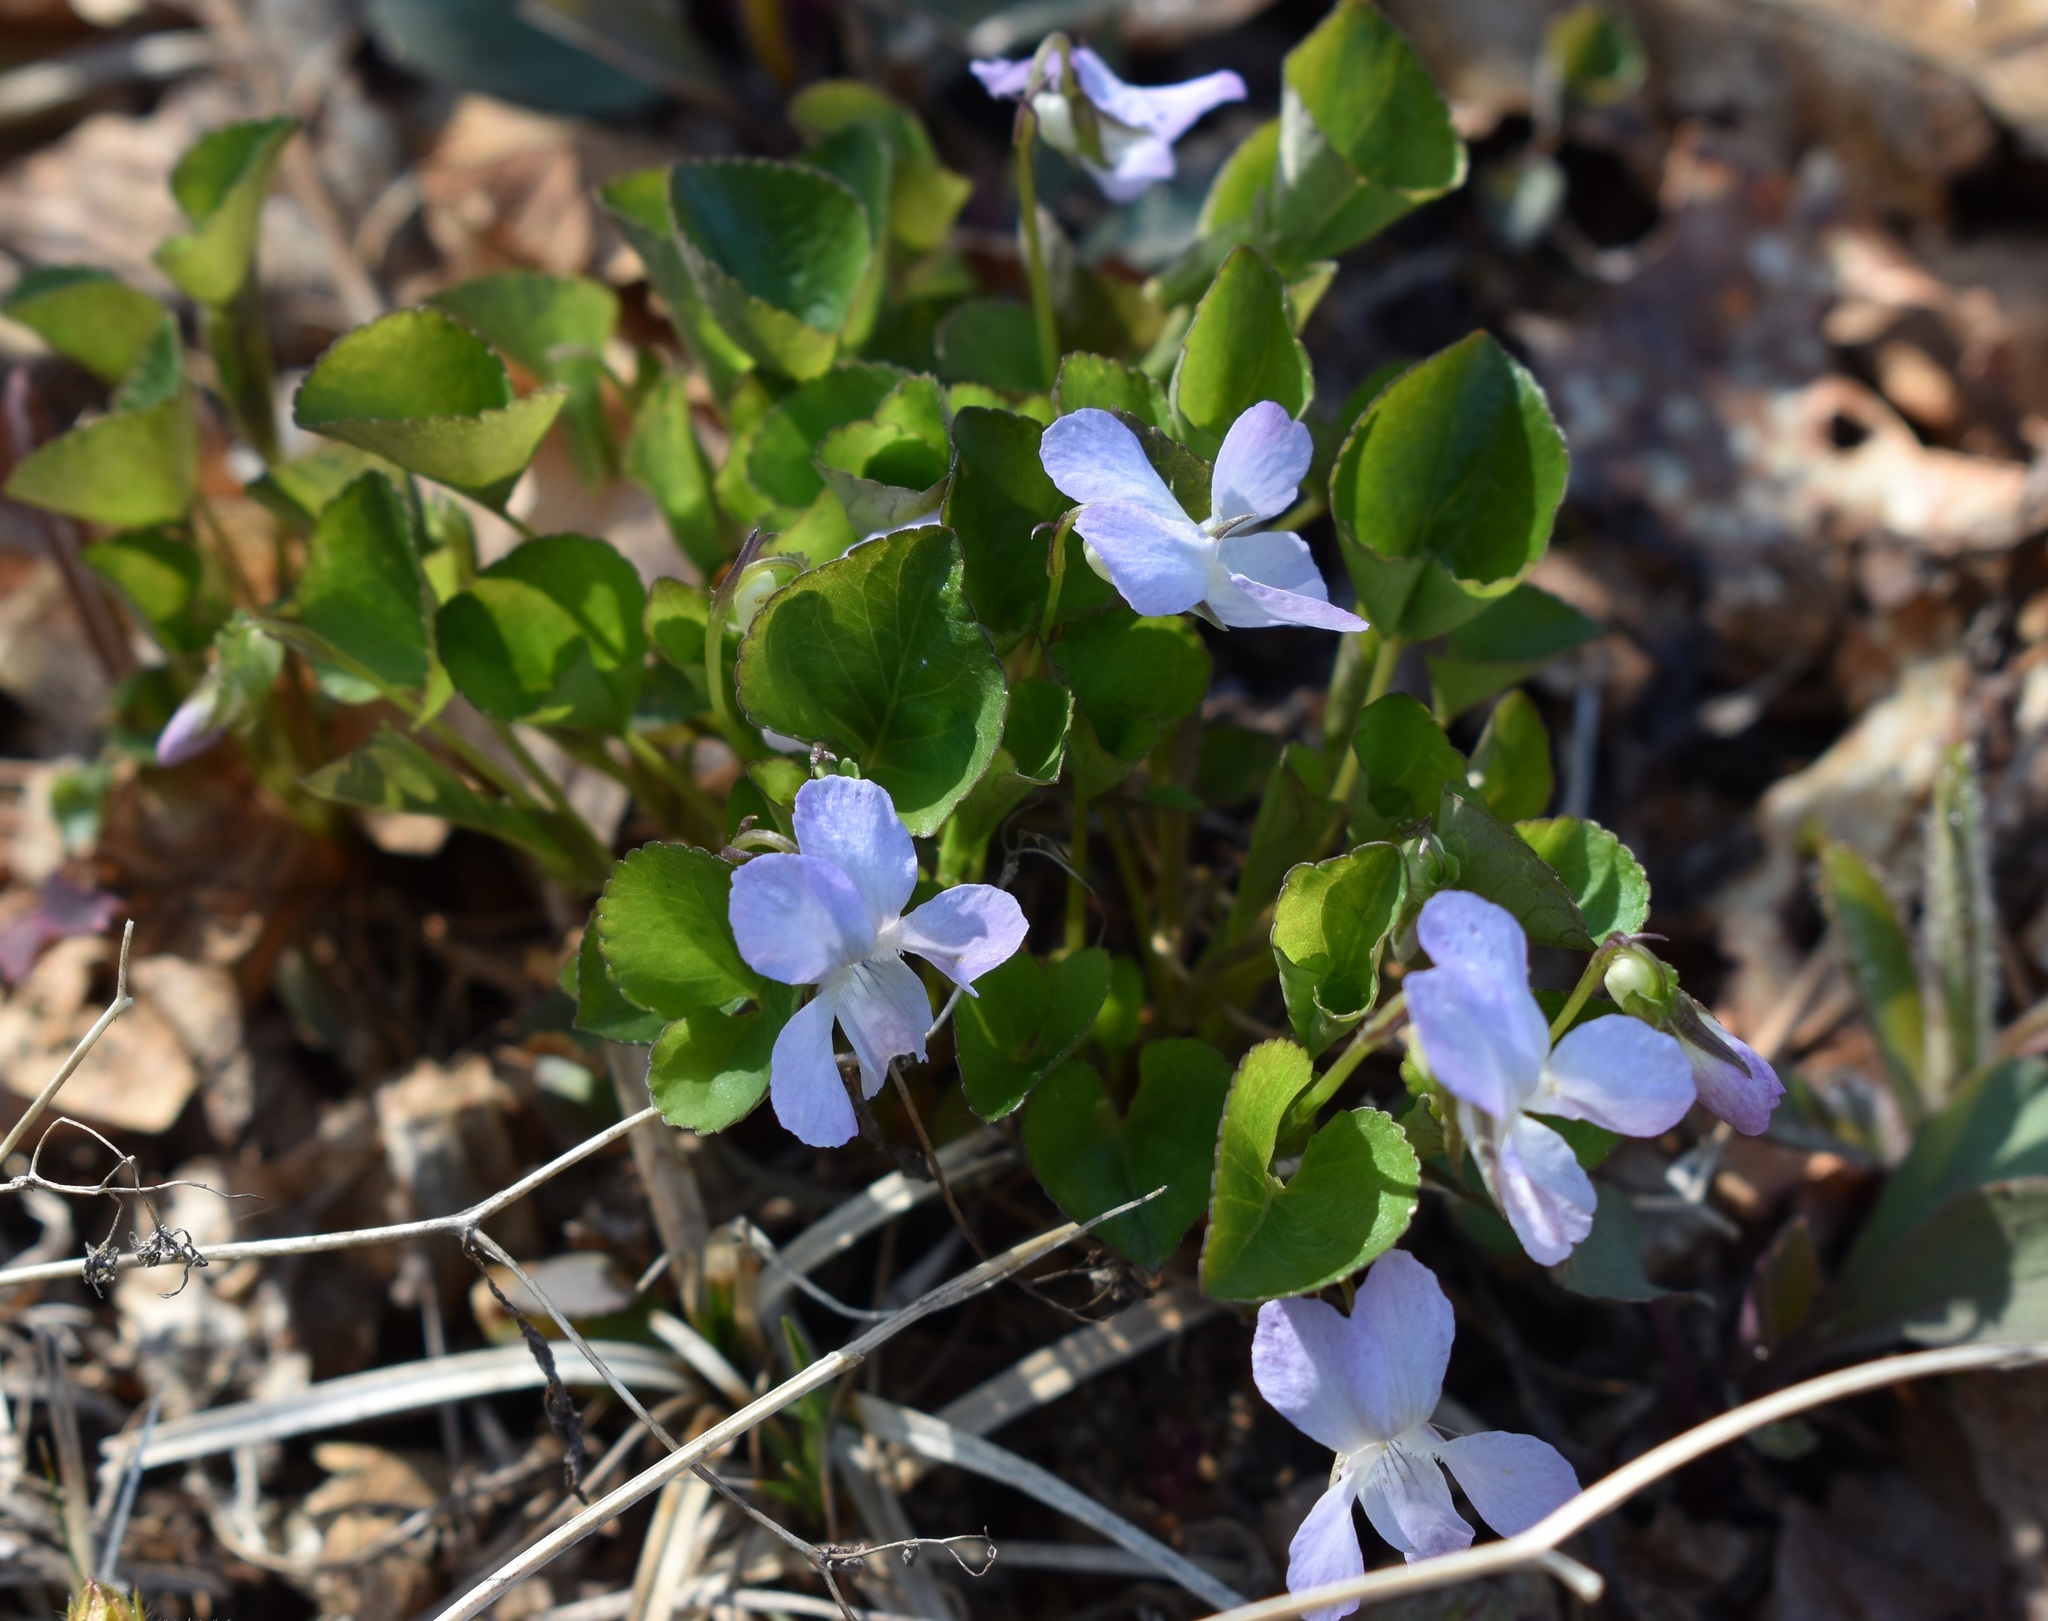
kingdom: Plantae
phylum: Tracheophyta
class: Magnoliopsida
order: Malpighiales
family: Violaceae
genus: Viola
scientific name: Viola sacchalinensis
